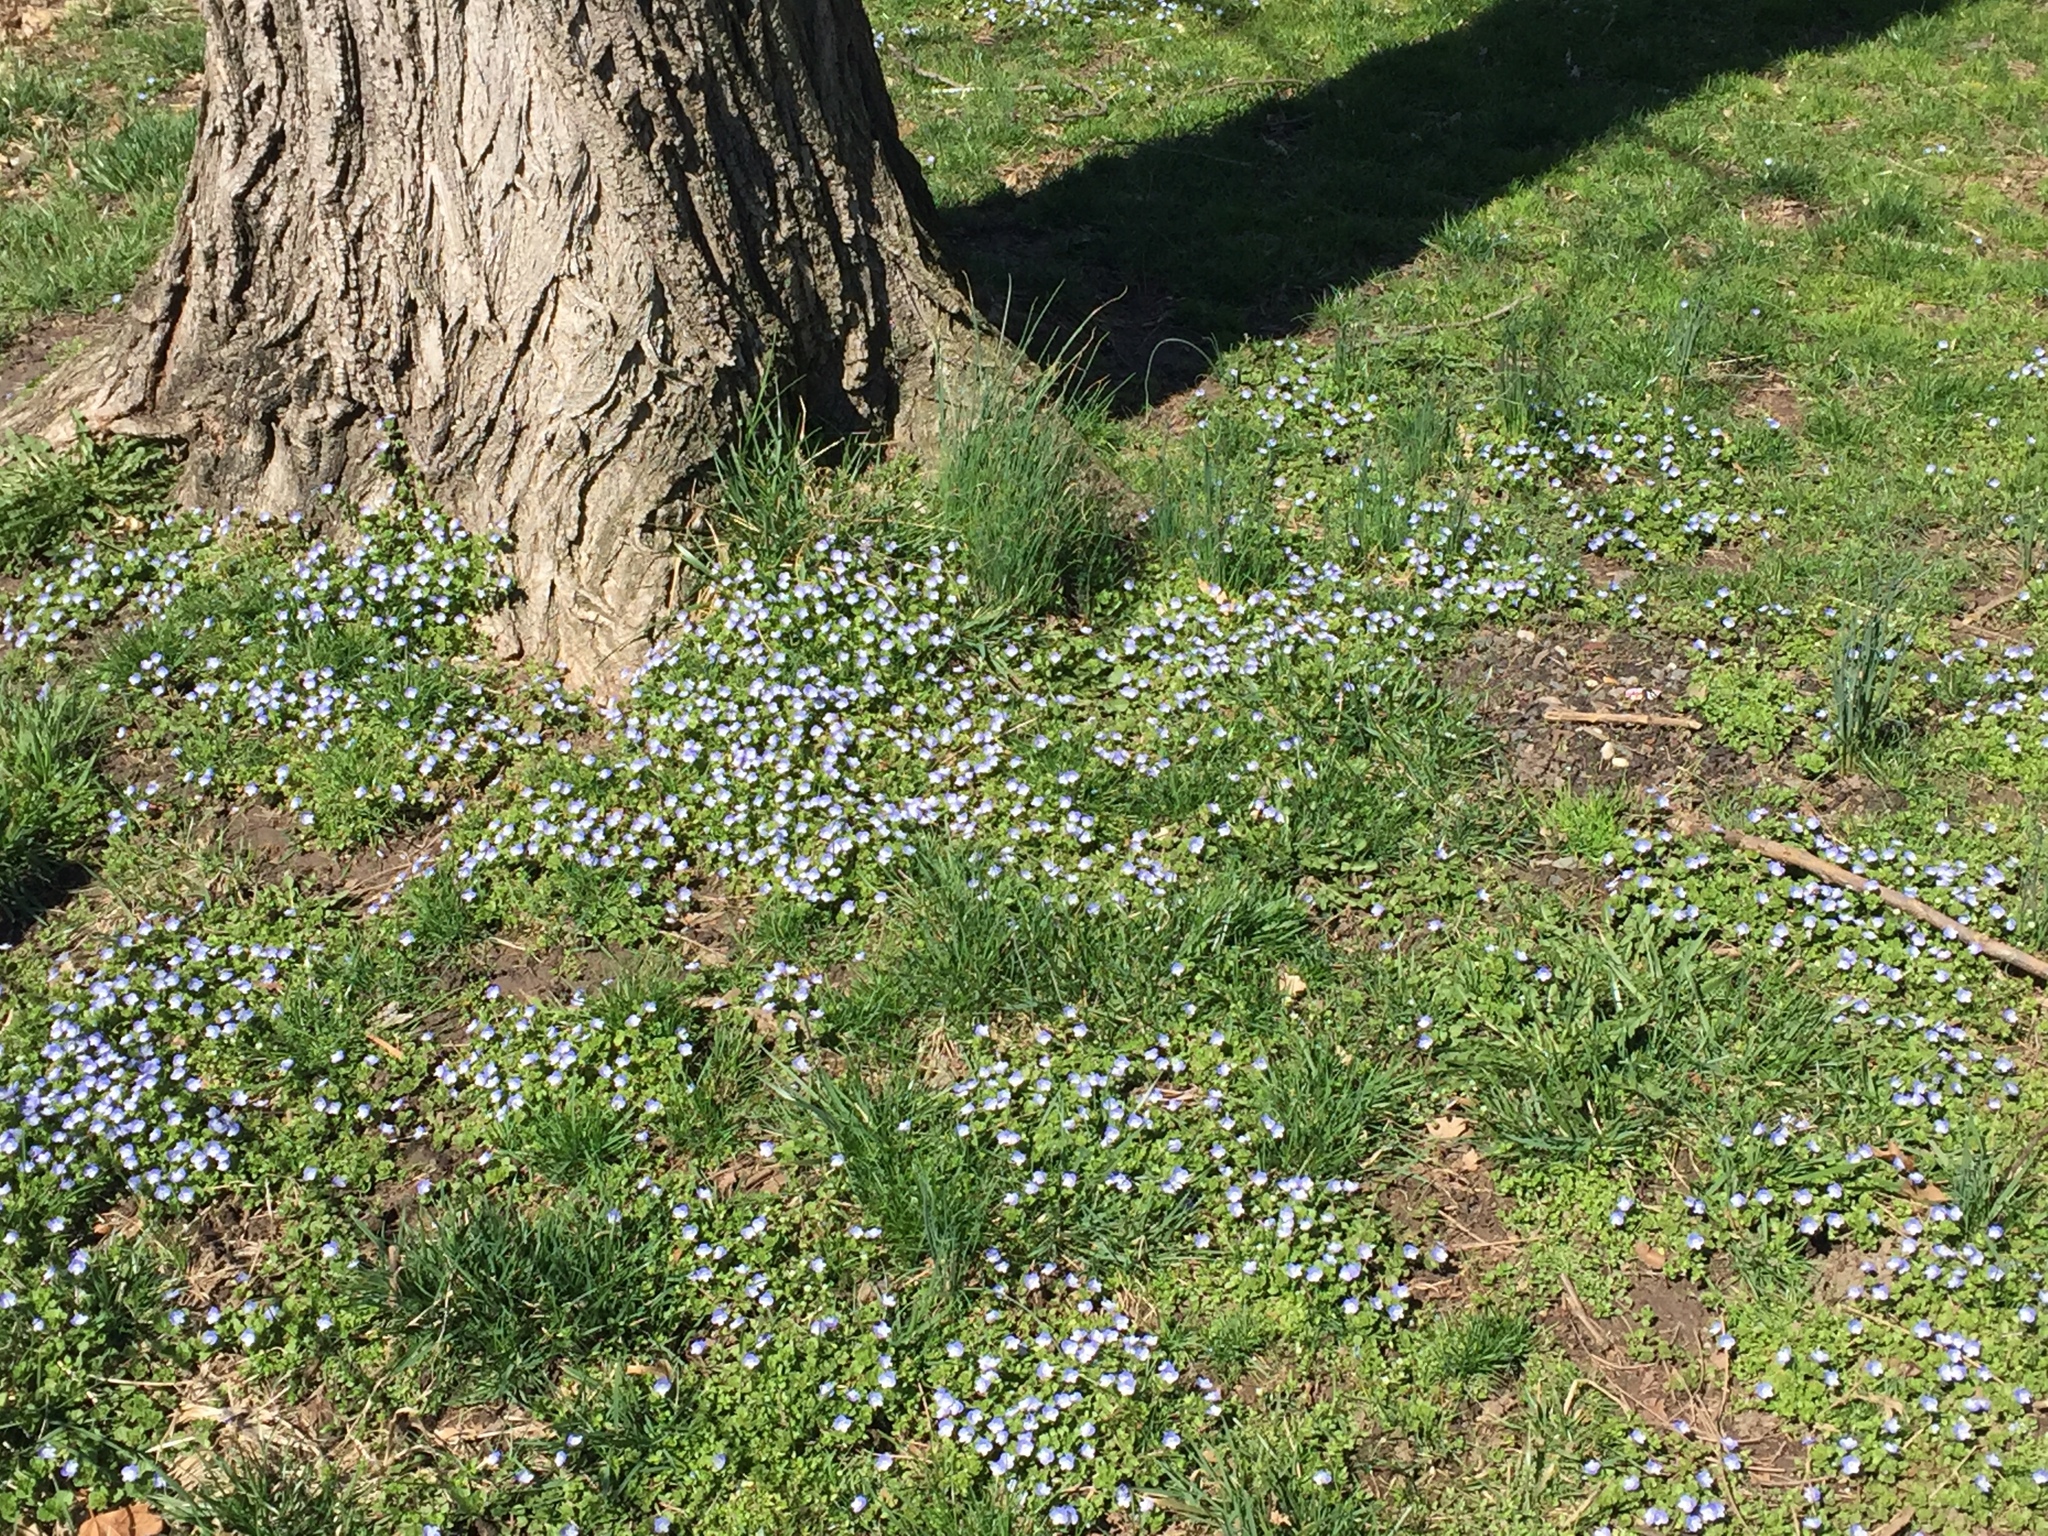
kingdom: Plantae
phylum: Tracheophyta
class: Magnoliopsida
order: Lamiales
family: Plantaginaceae
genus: Veronica
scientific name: Veronica persica
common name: Common field-speedwell
